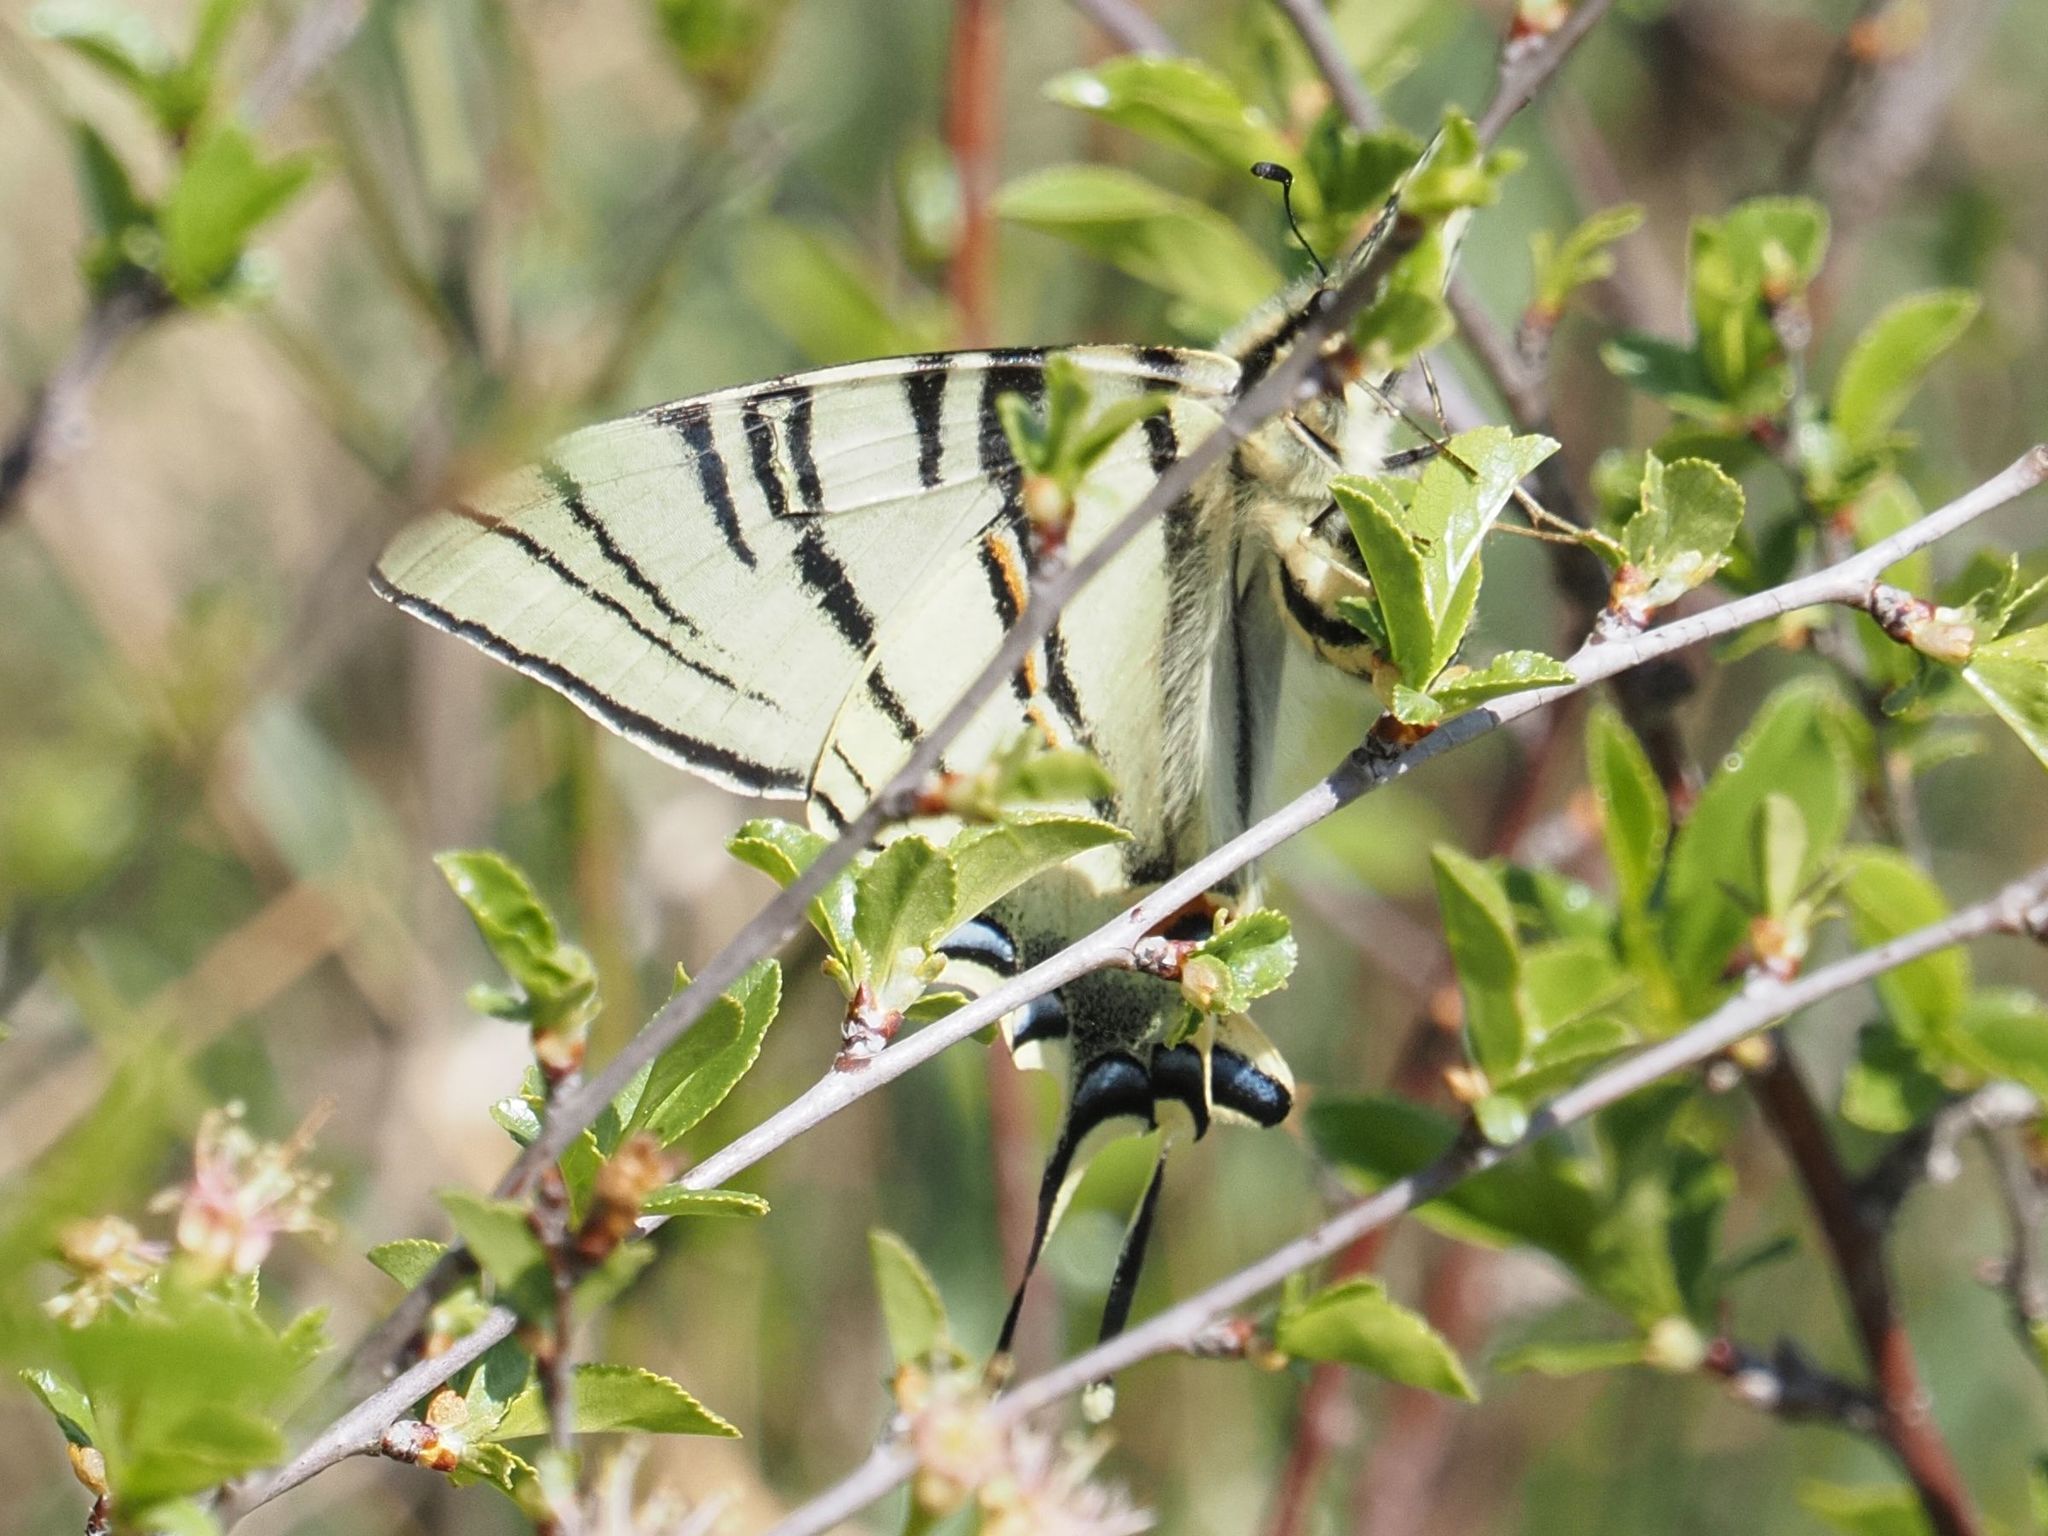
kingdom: Animalia
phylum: Arthropoda
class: Insecta
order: Lepidoptera
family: Papilionidae
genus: Iphiclides
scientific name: Iphiclides podalirius
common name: Scarce swallowtail
